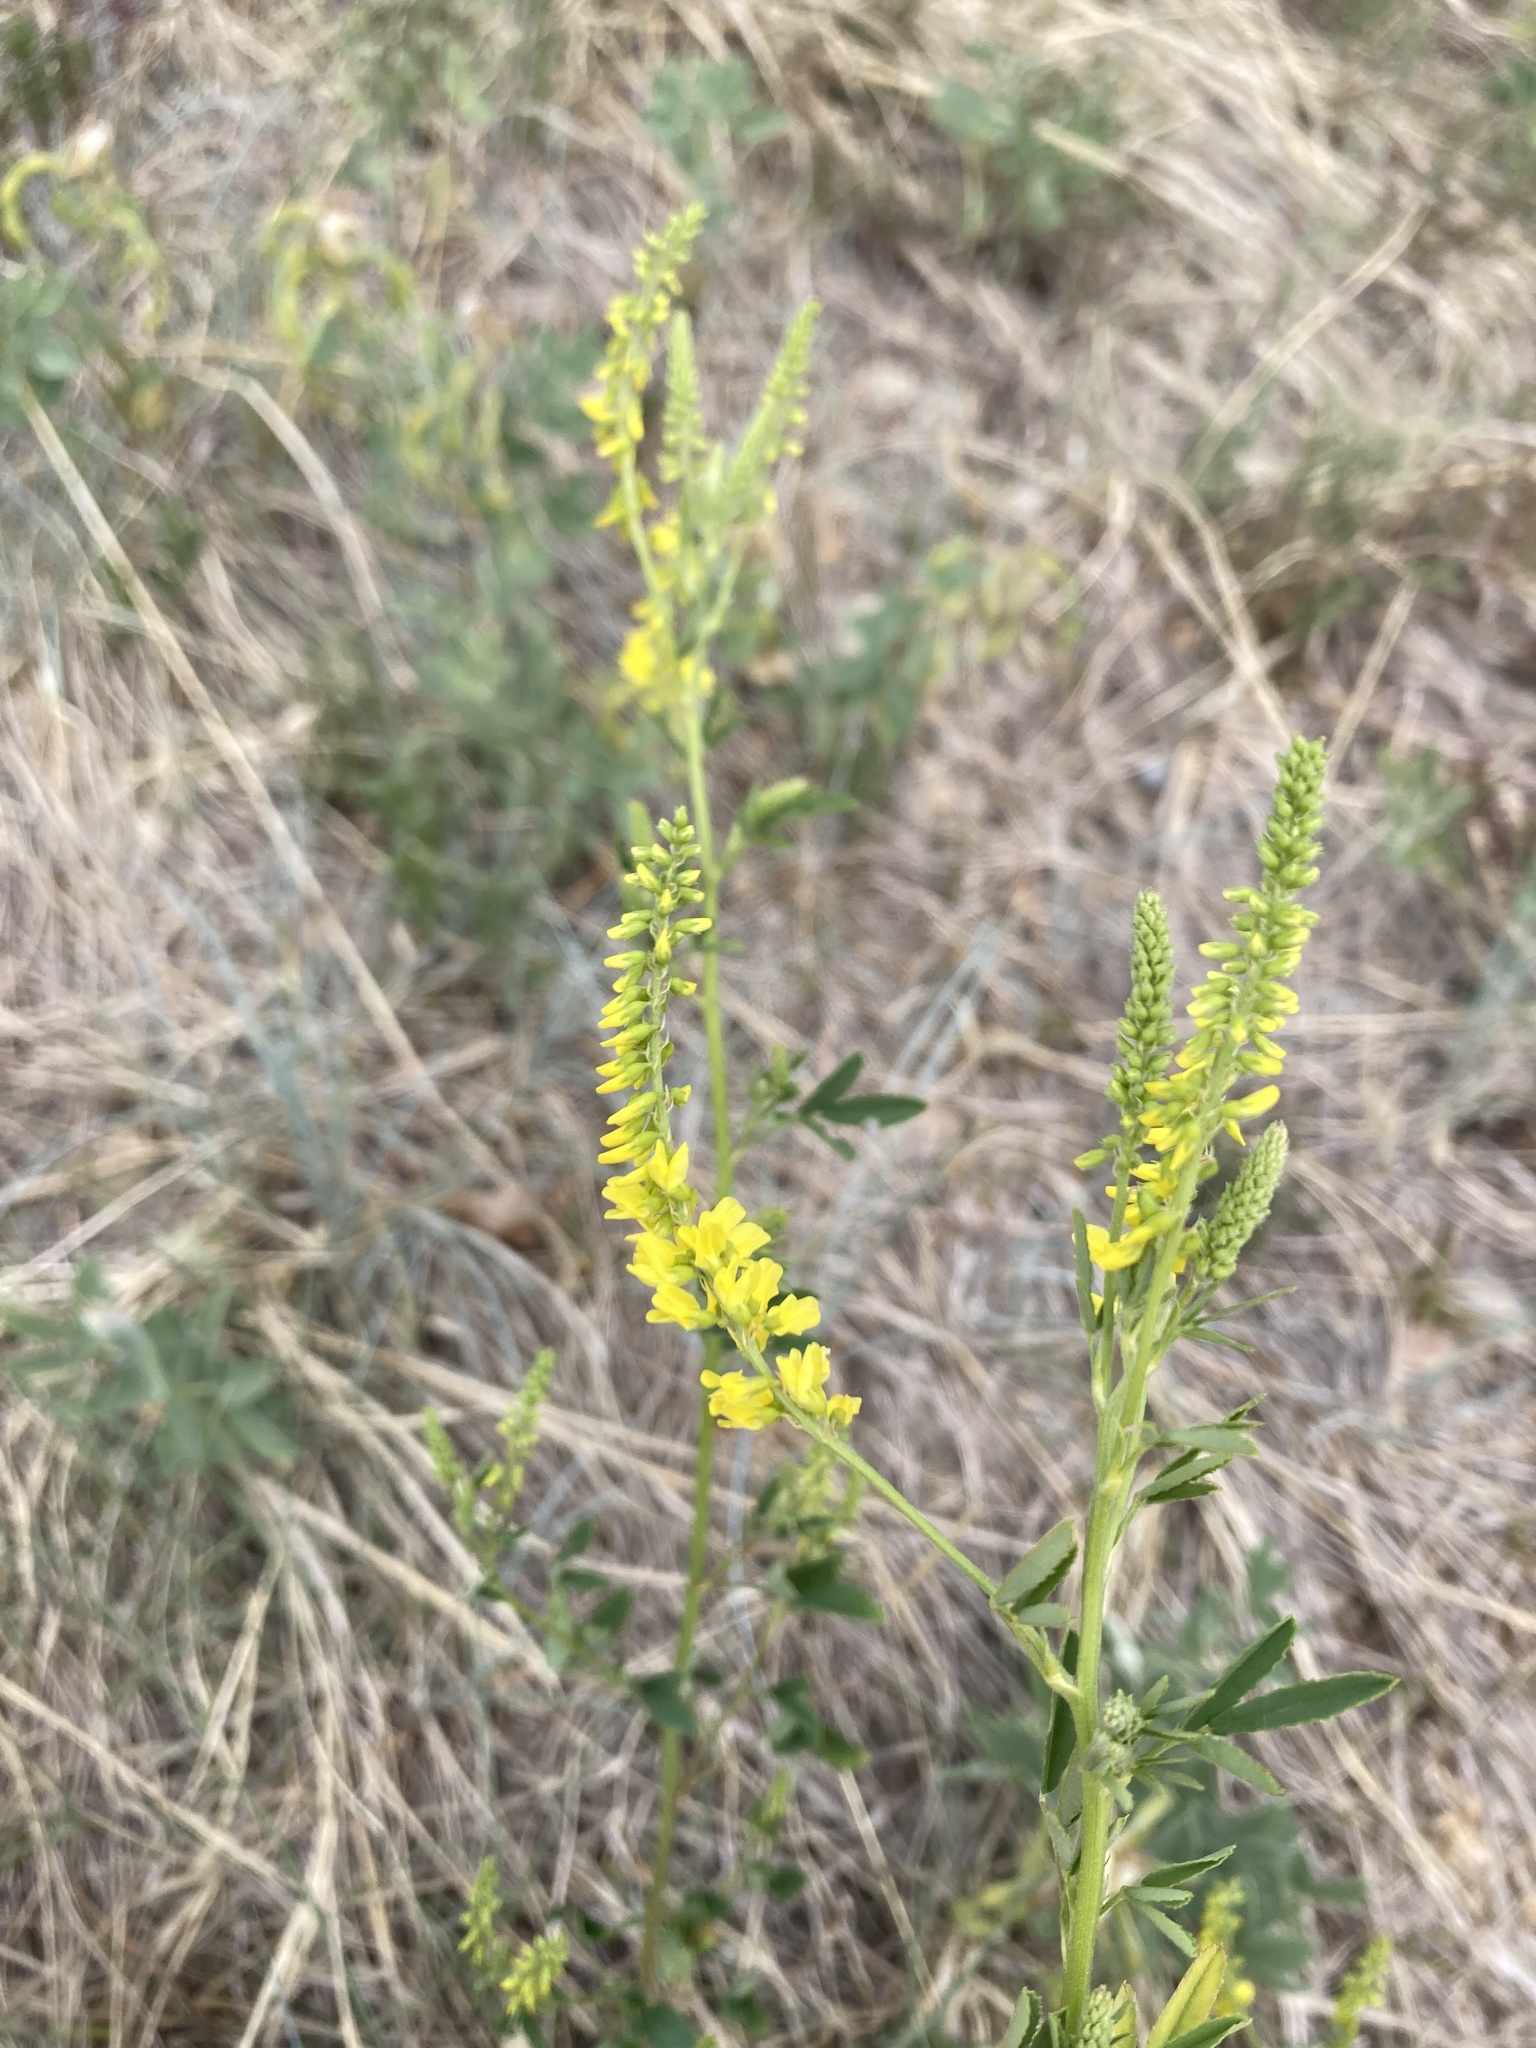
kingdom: Plantae
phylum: Tracheophyta
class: Magnoliopsida
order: Fabales
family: Fabaceae
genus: Melilotus
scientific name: Melilotus officinalis
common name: Sweetclover
